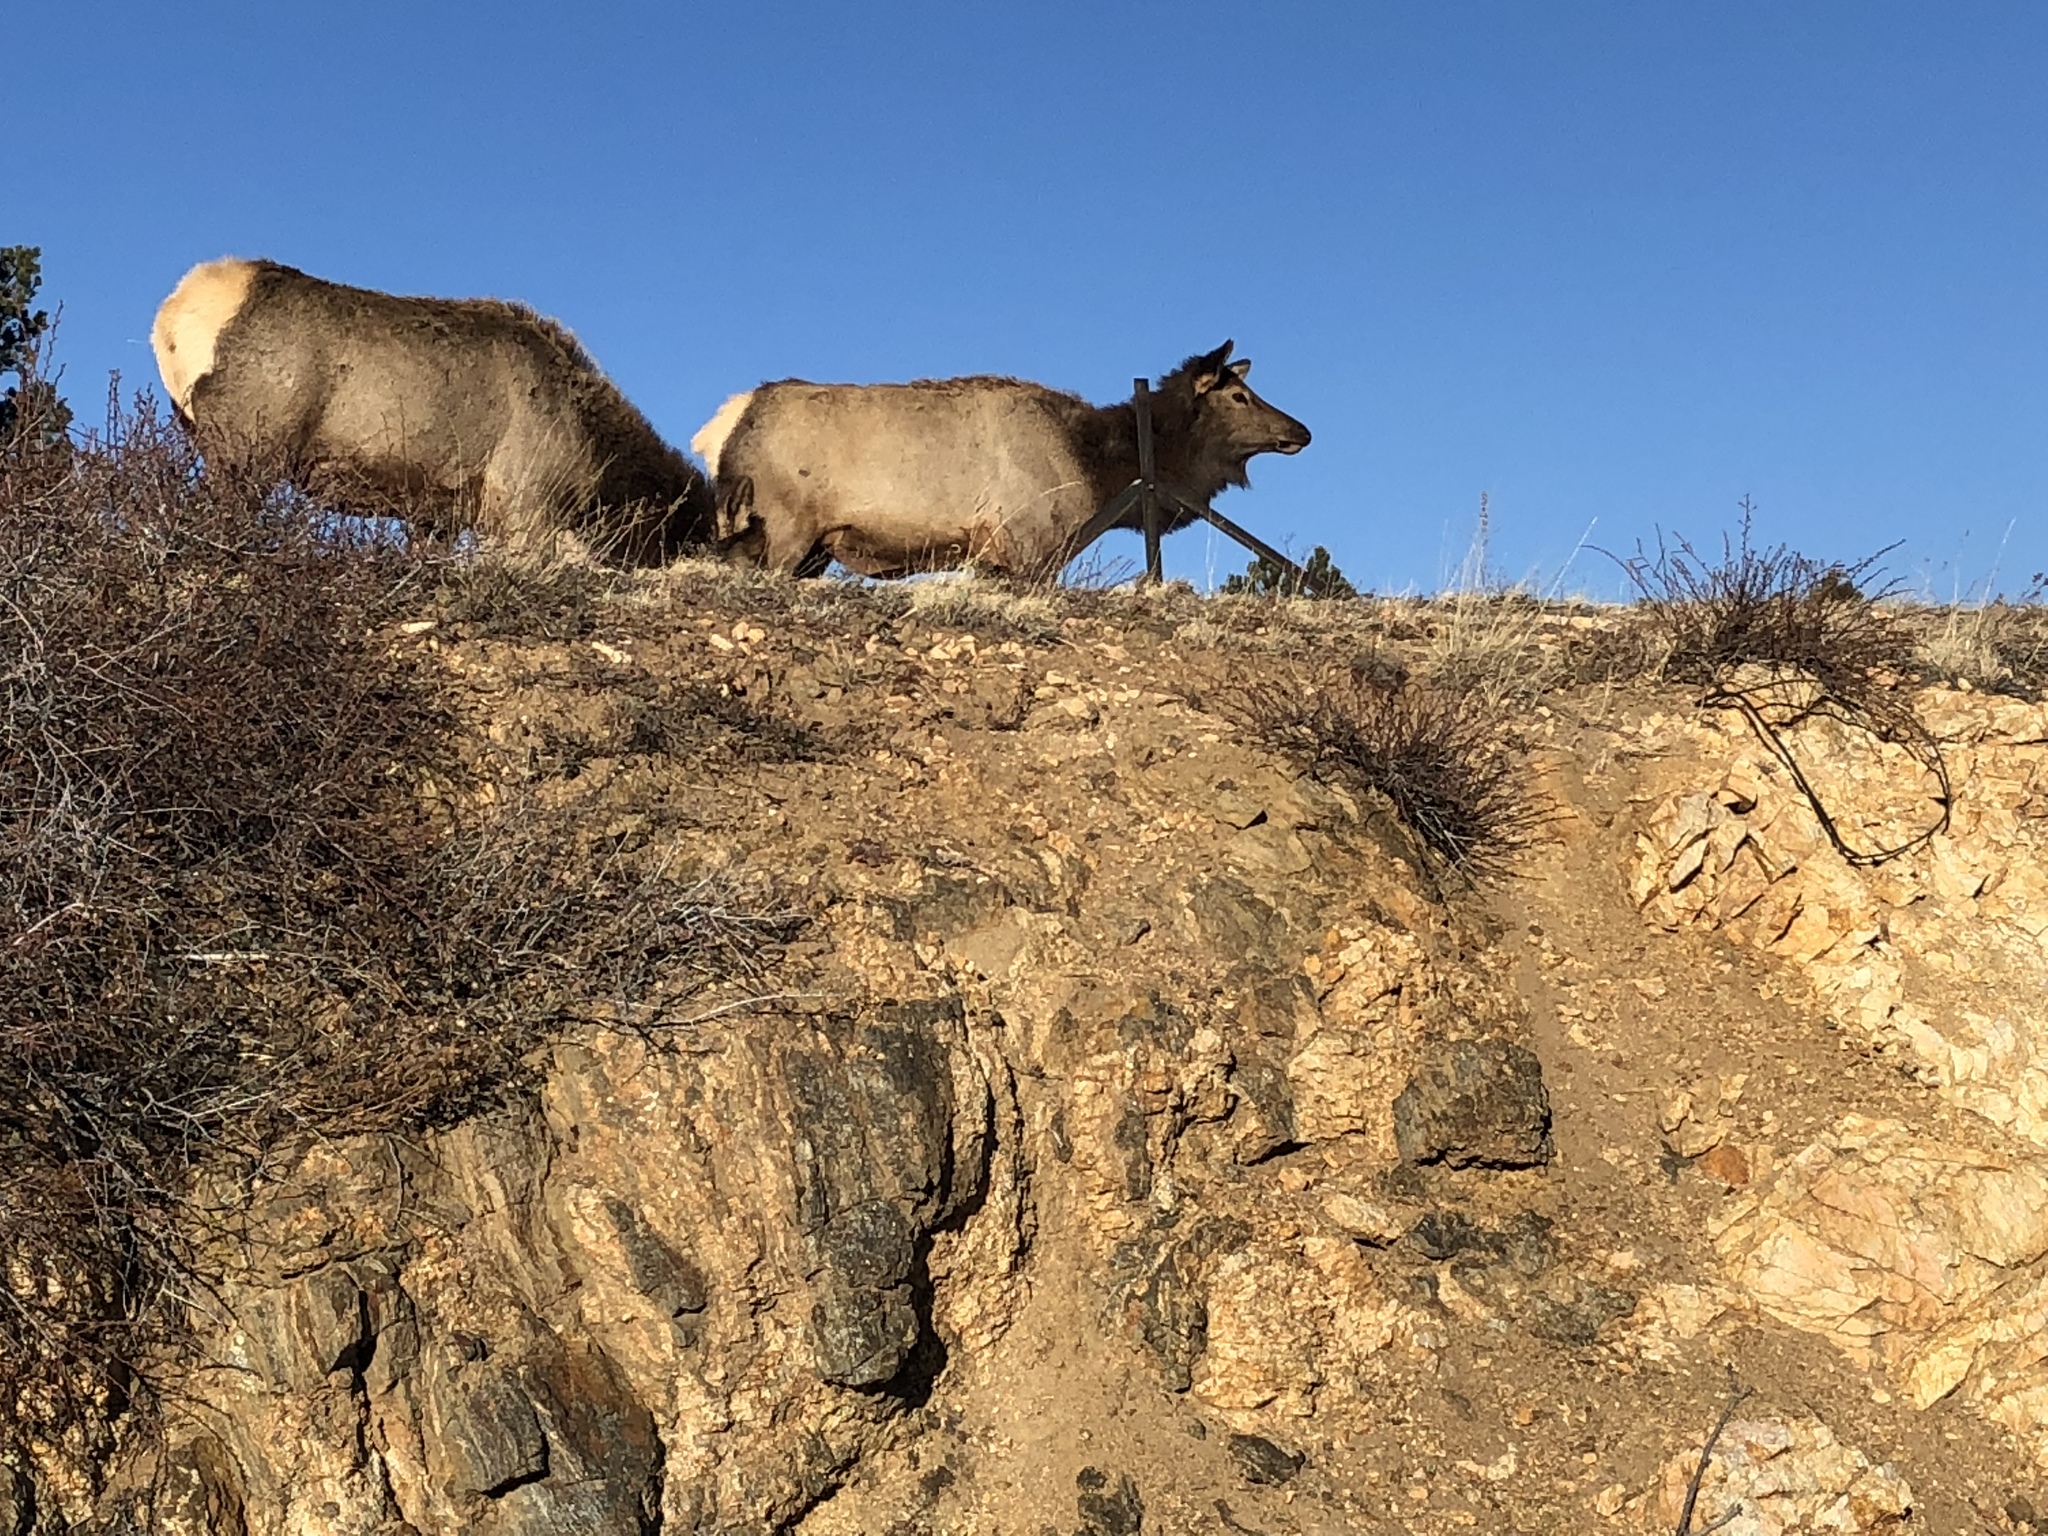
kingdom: Animalia
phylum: Chordata
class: Mammalia
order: Artiodactyla
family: Cervidae
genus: Cervus
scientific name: Cervus elaphus
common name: Red deer
